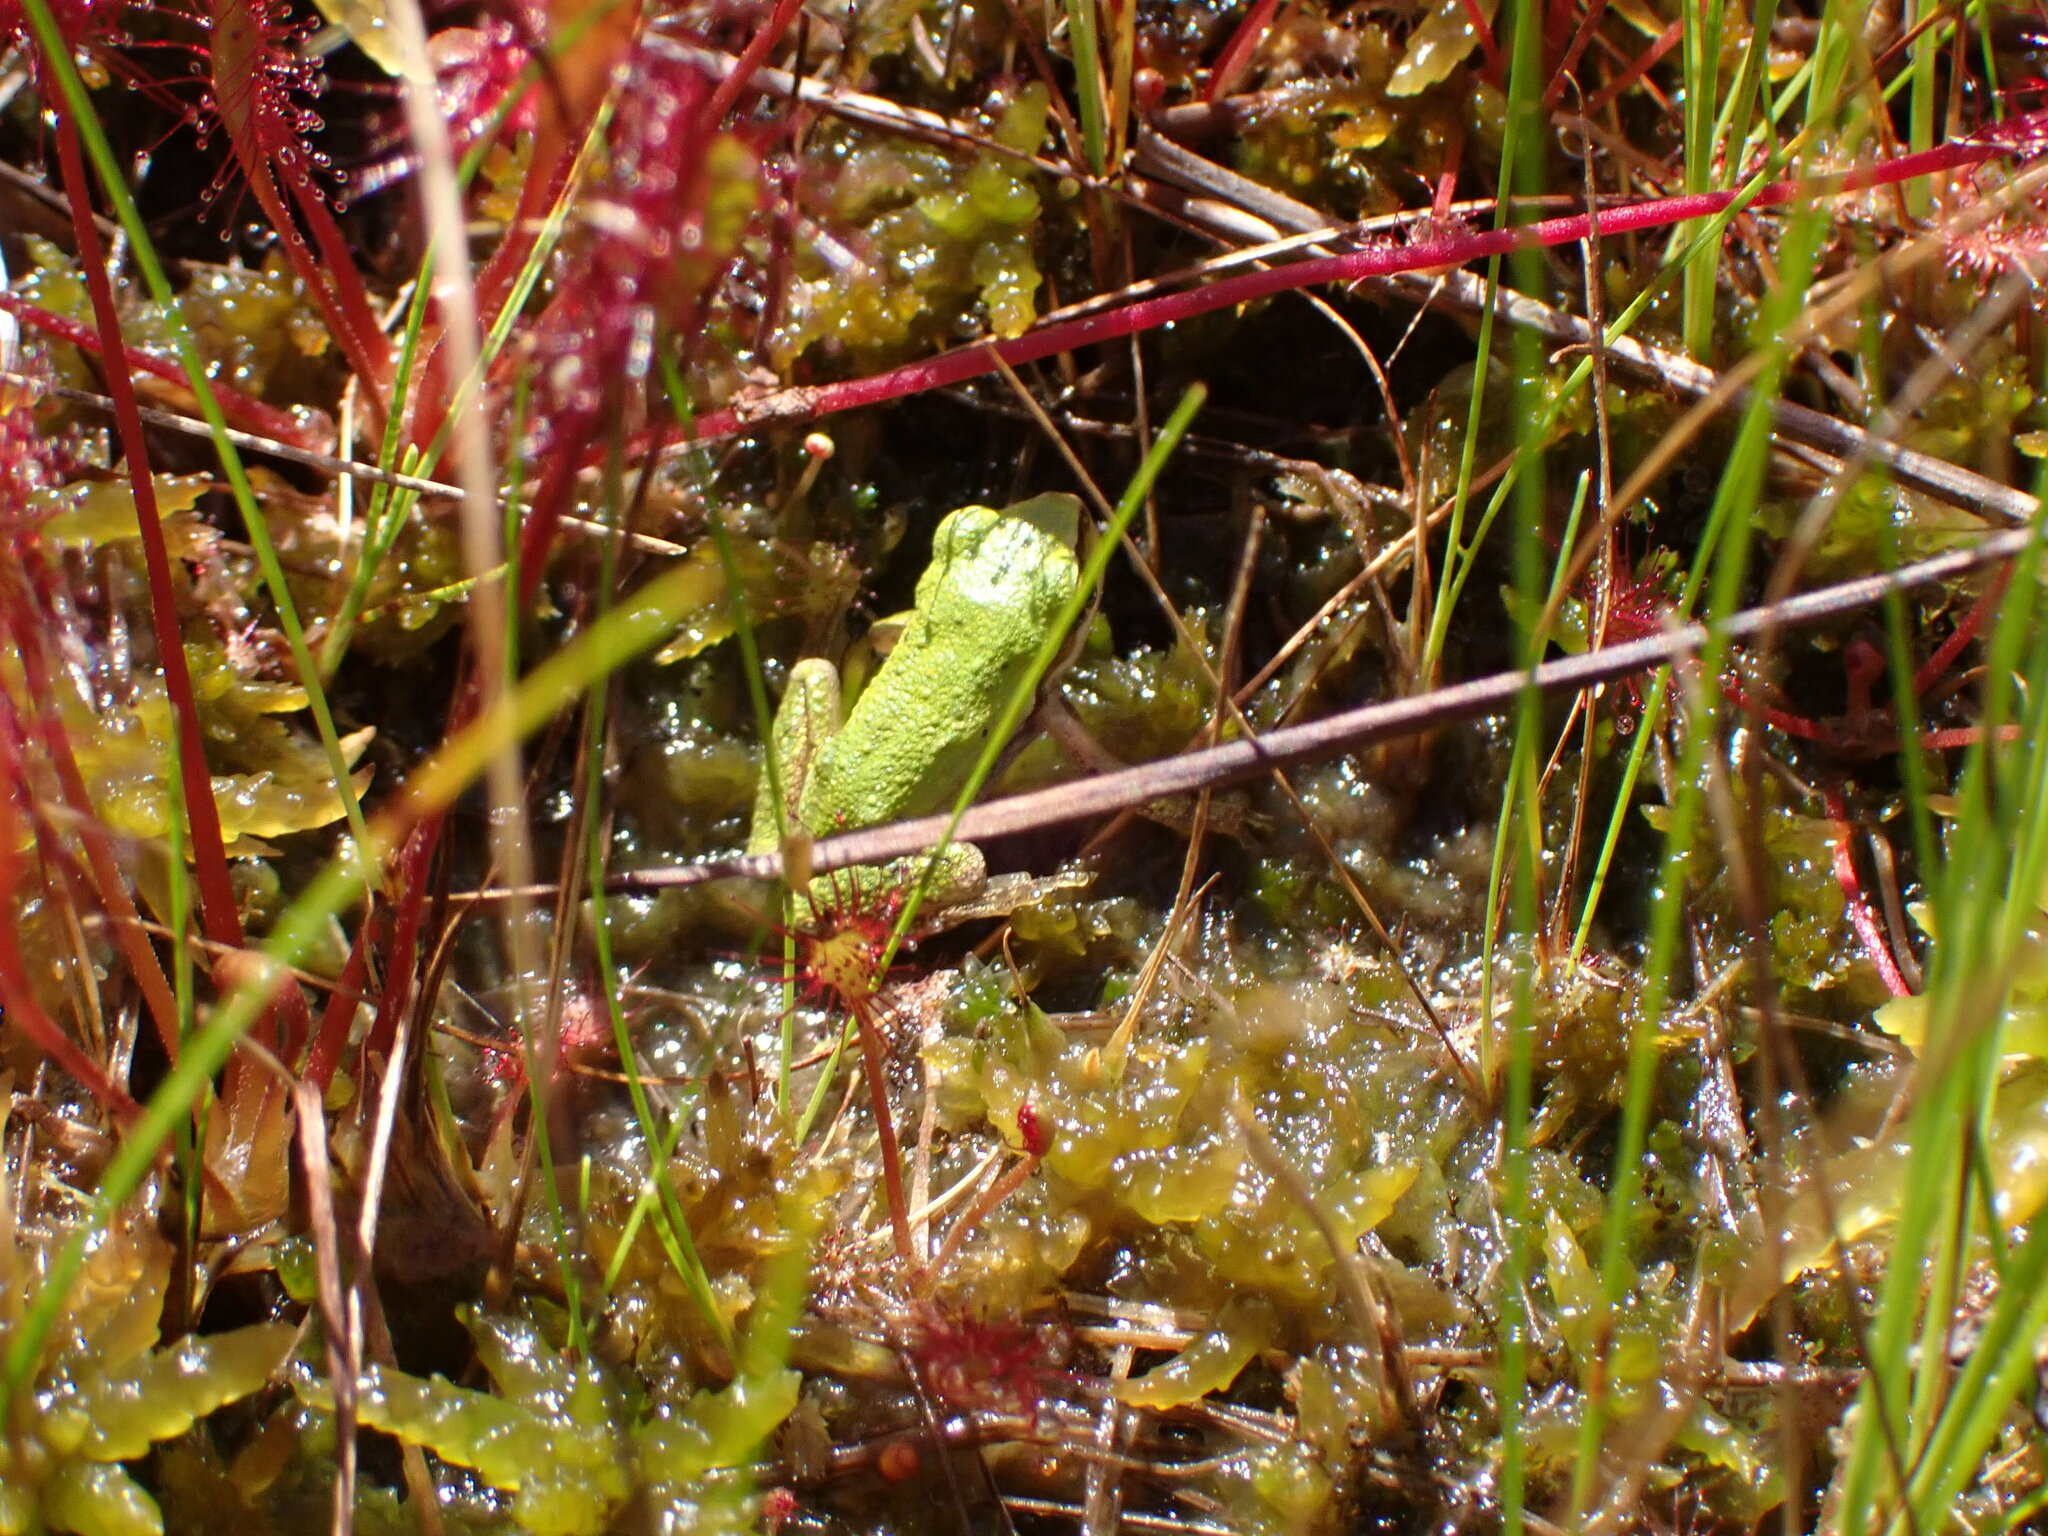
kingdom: Animalia
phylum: Chordata
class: Amphibia
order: Anura
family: Hylidae
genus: Pseudacris
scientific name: Pseudacris regilla
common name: Pacific chorus frog
